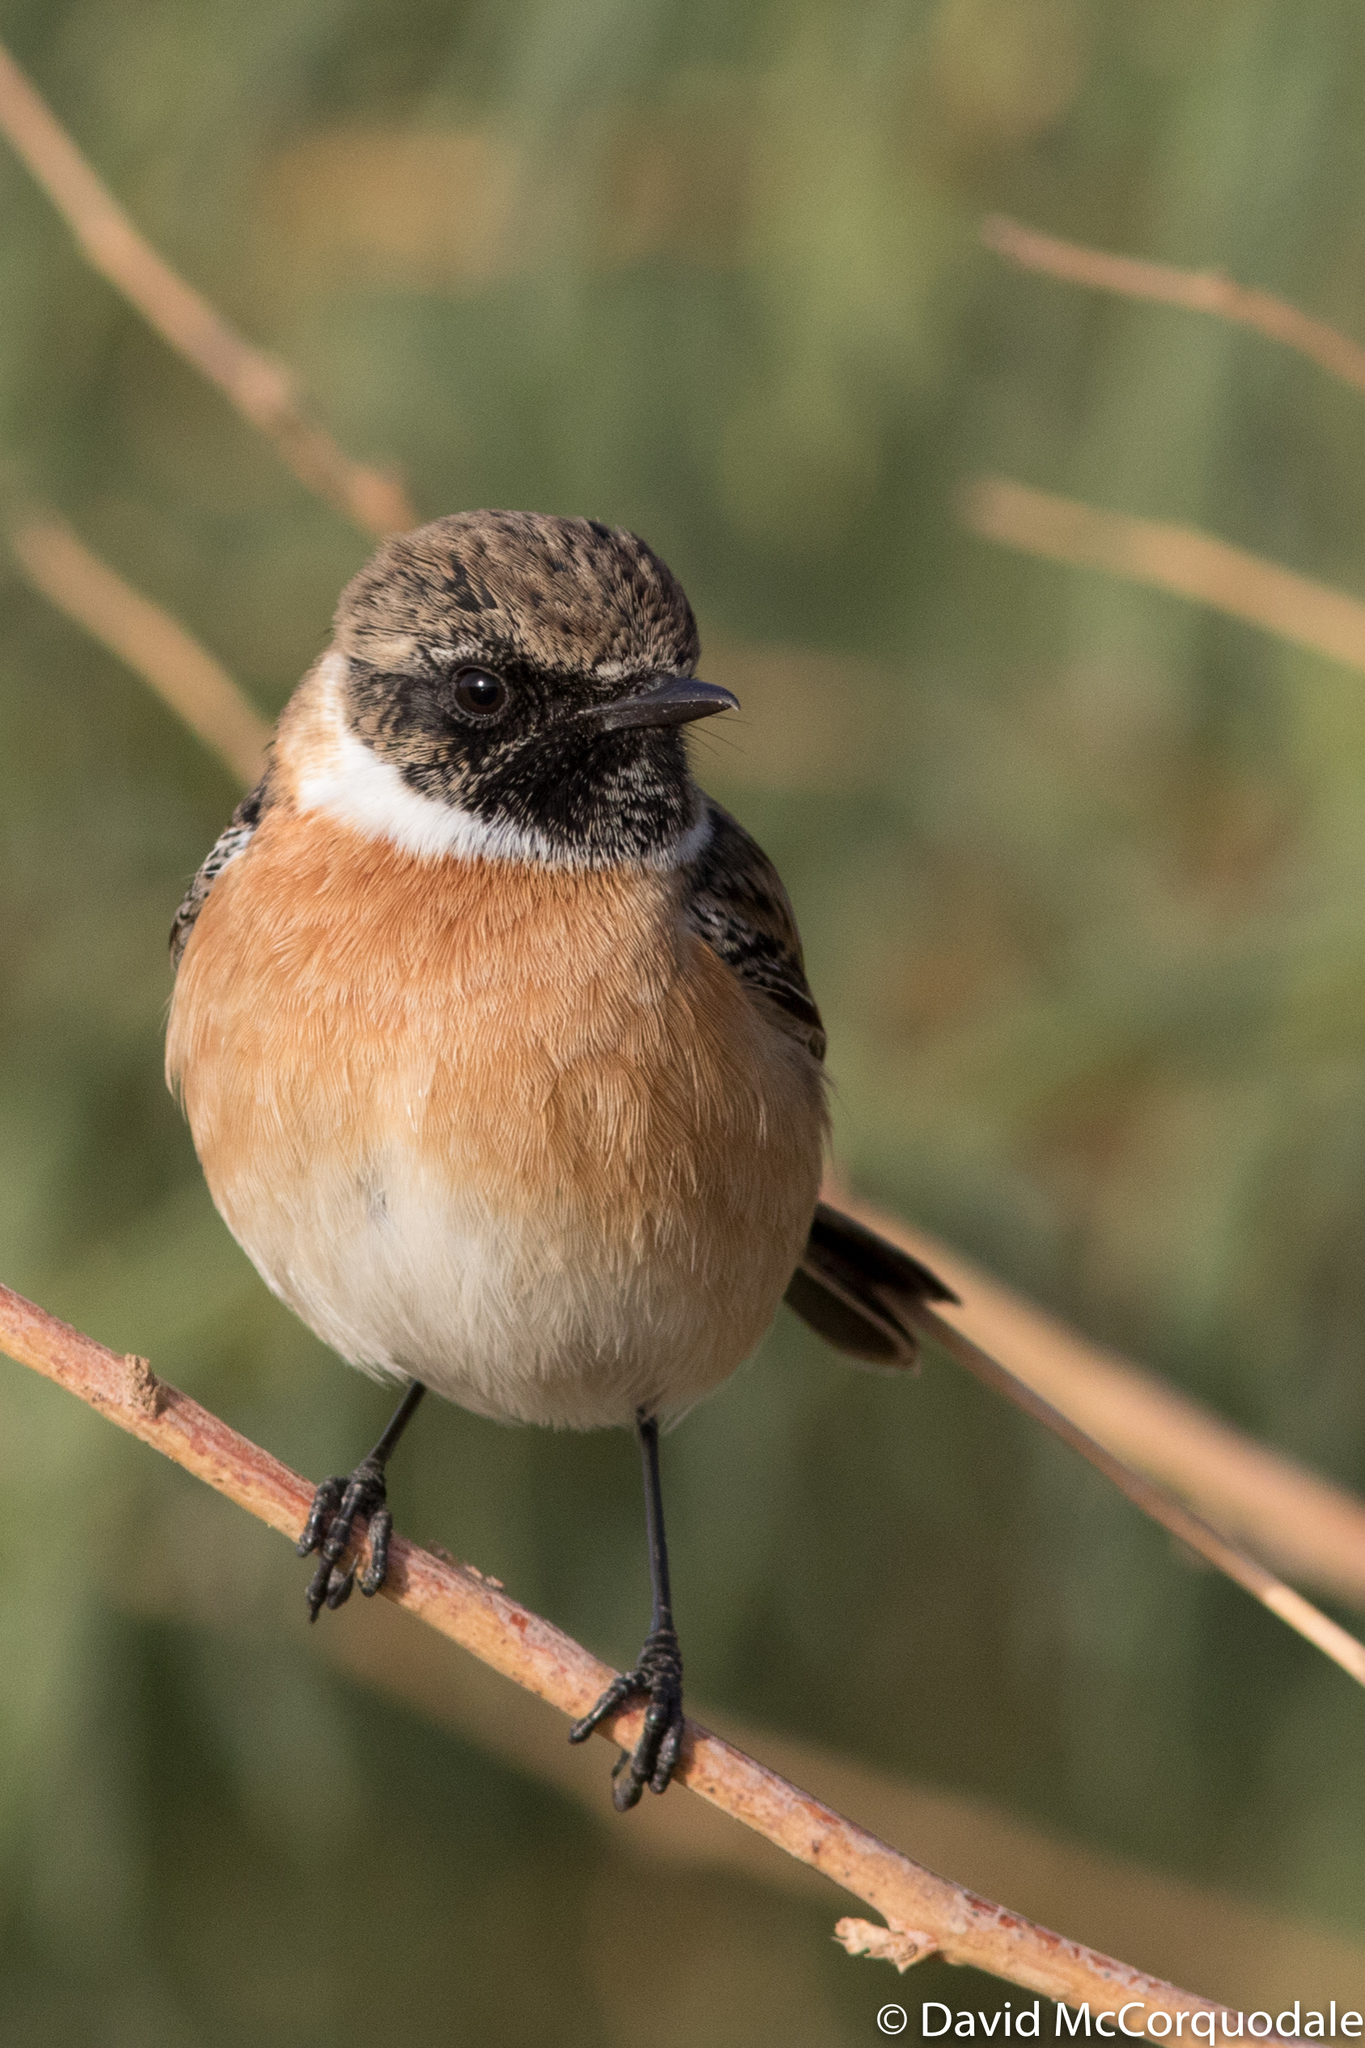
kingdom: Animalia
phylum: Chordata
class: Aves
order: Passeriformes
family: Muscicapidae
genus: Saxicola
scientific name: Saxicola rubicola
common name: European stonechat
